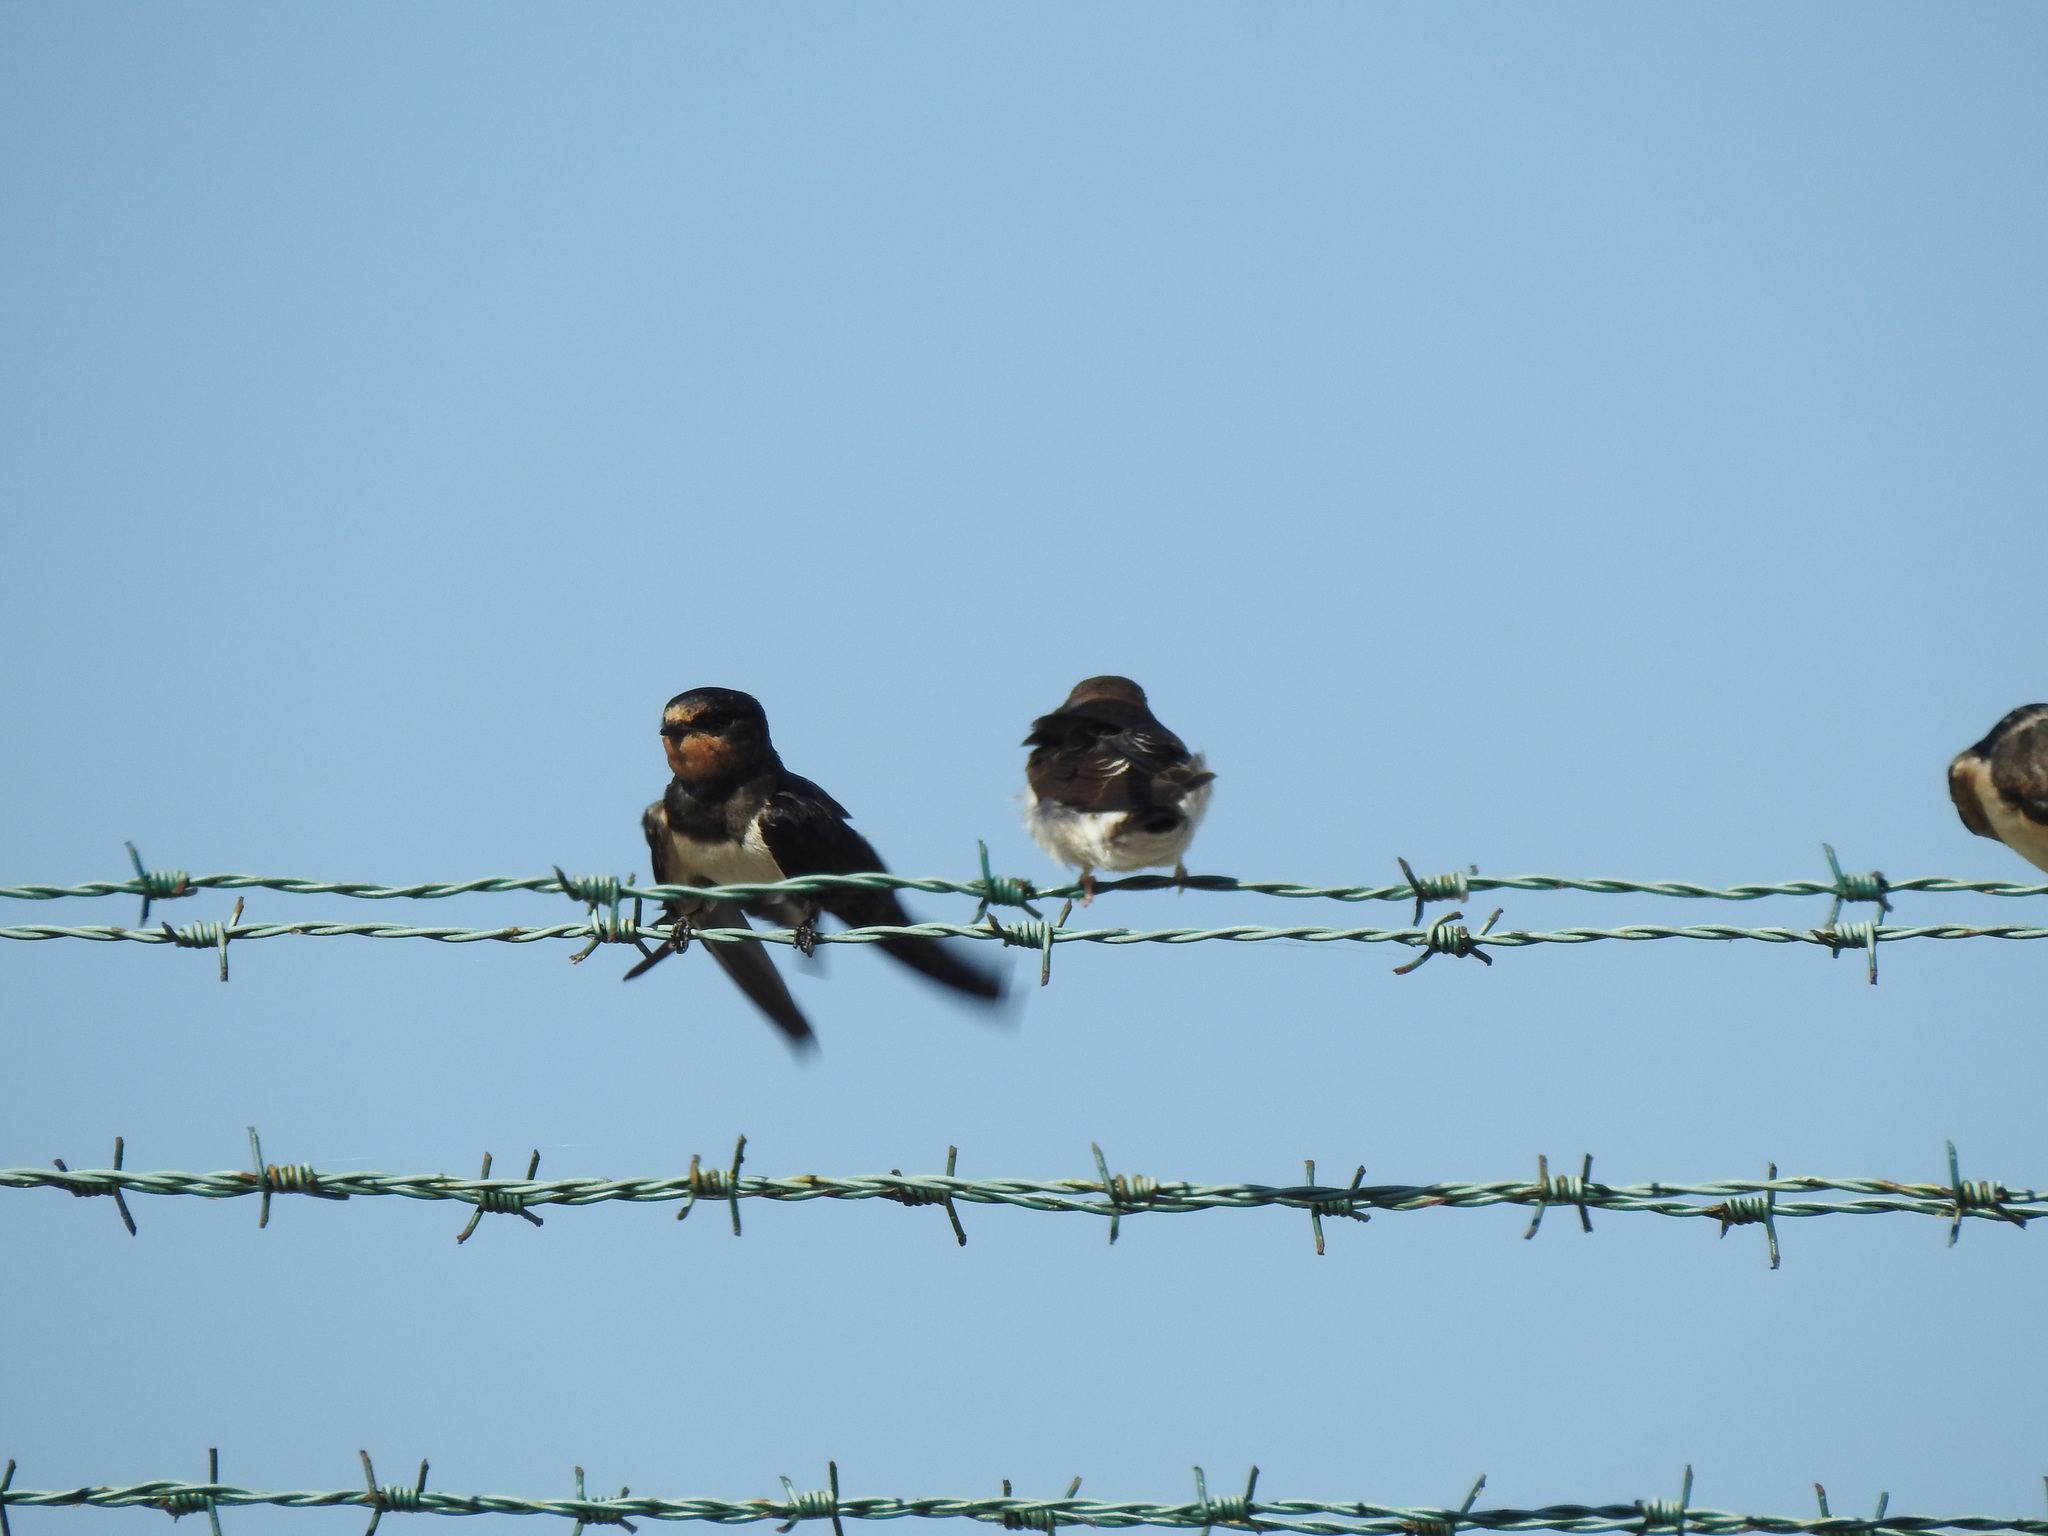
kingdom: Animalia
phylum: Chordata
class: Aves
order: Passeriformes
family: Hirundinidae
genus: Hirundo
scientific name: Hirundo rustica
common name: Barn swallow
